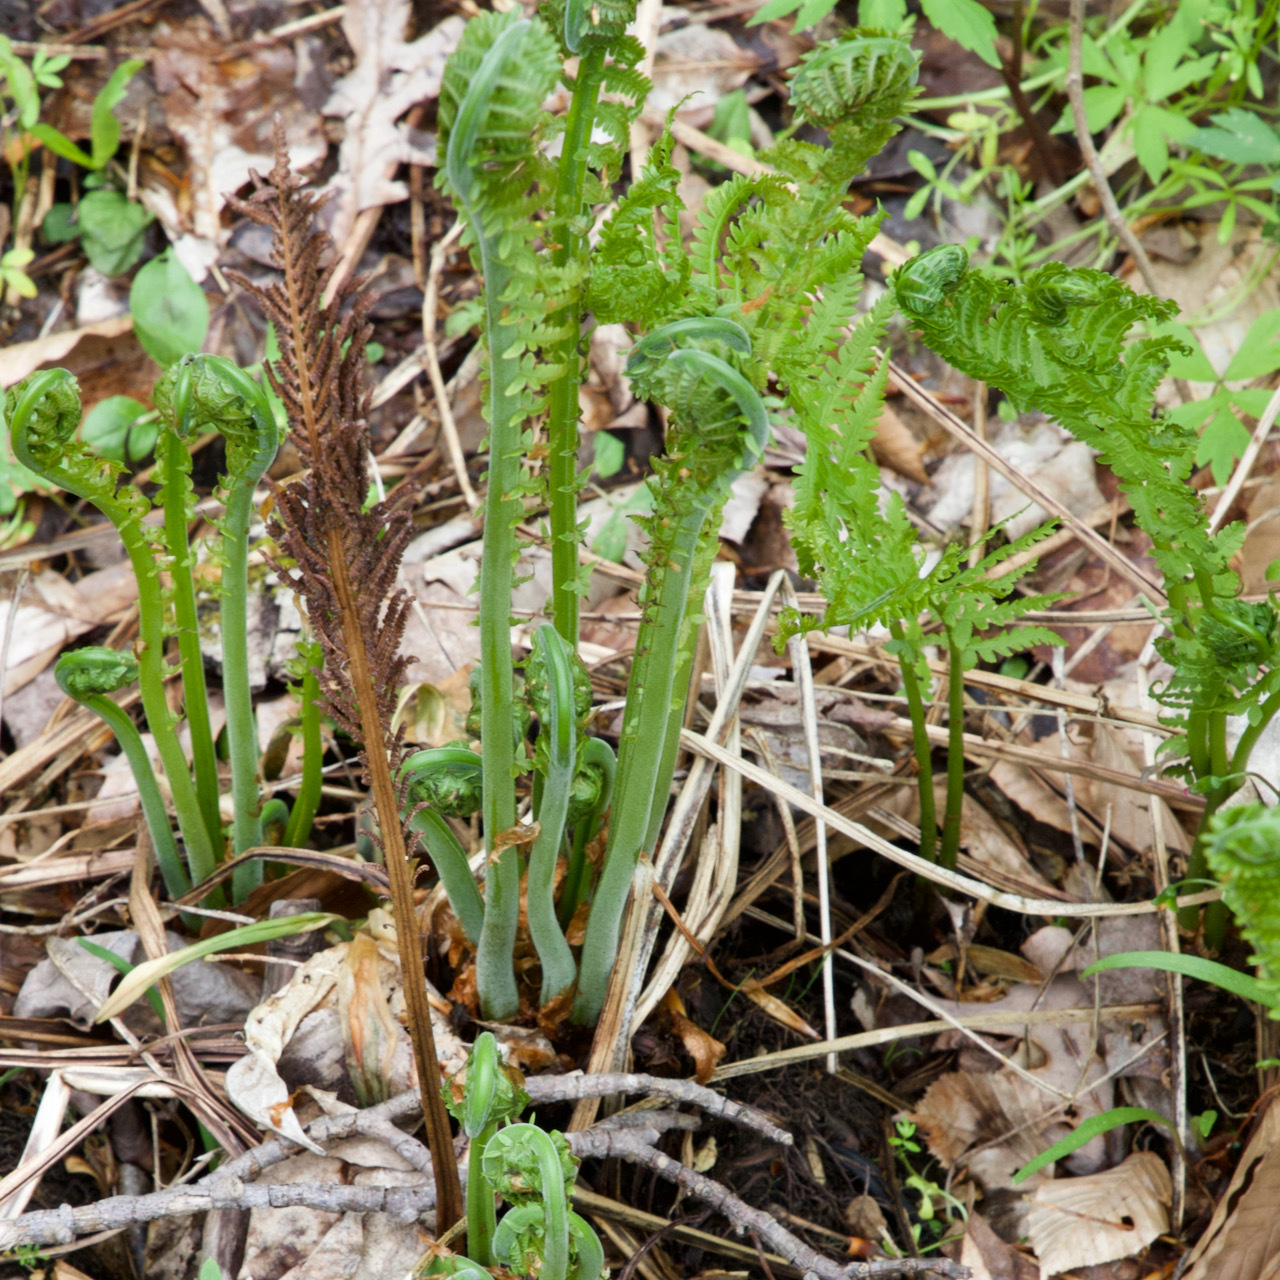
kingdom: Plantae
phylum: Tracheophyta
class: Polypodiopsida
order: Polypodiales
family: Onocleaceae
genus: Matteuccia
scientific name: Matteuccia struthiopteris
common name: Ostrich fern
